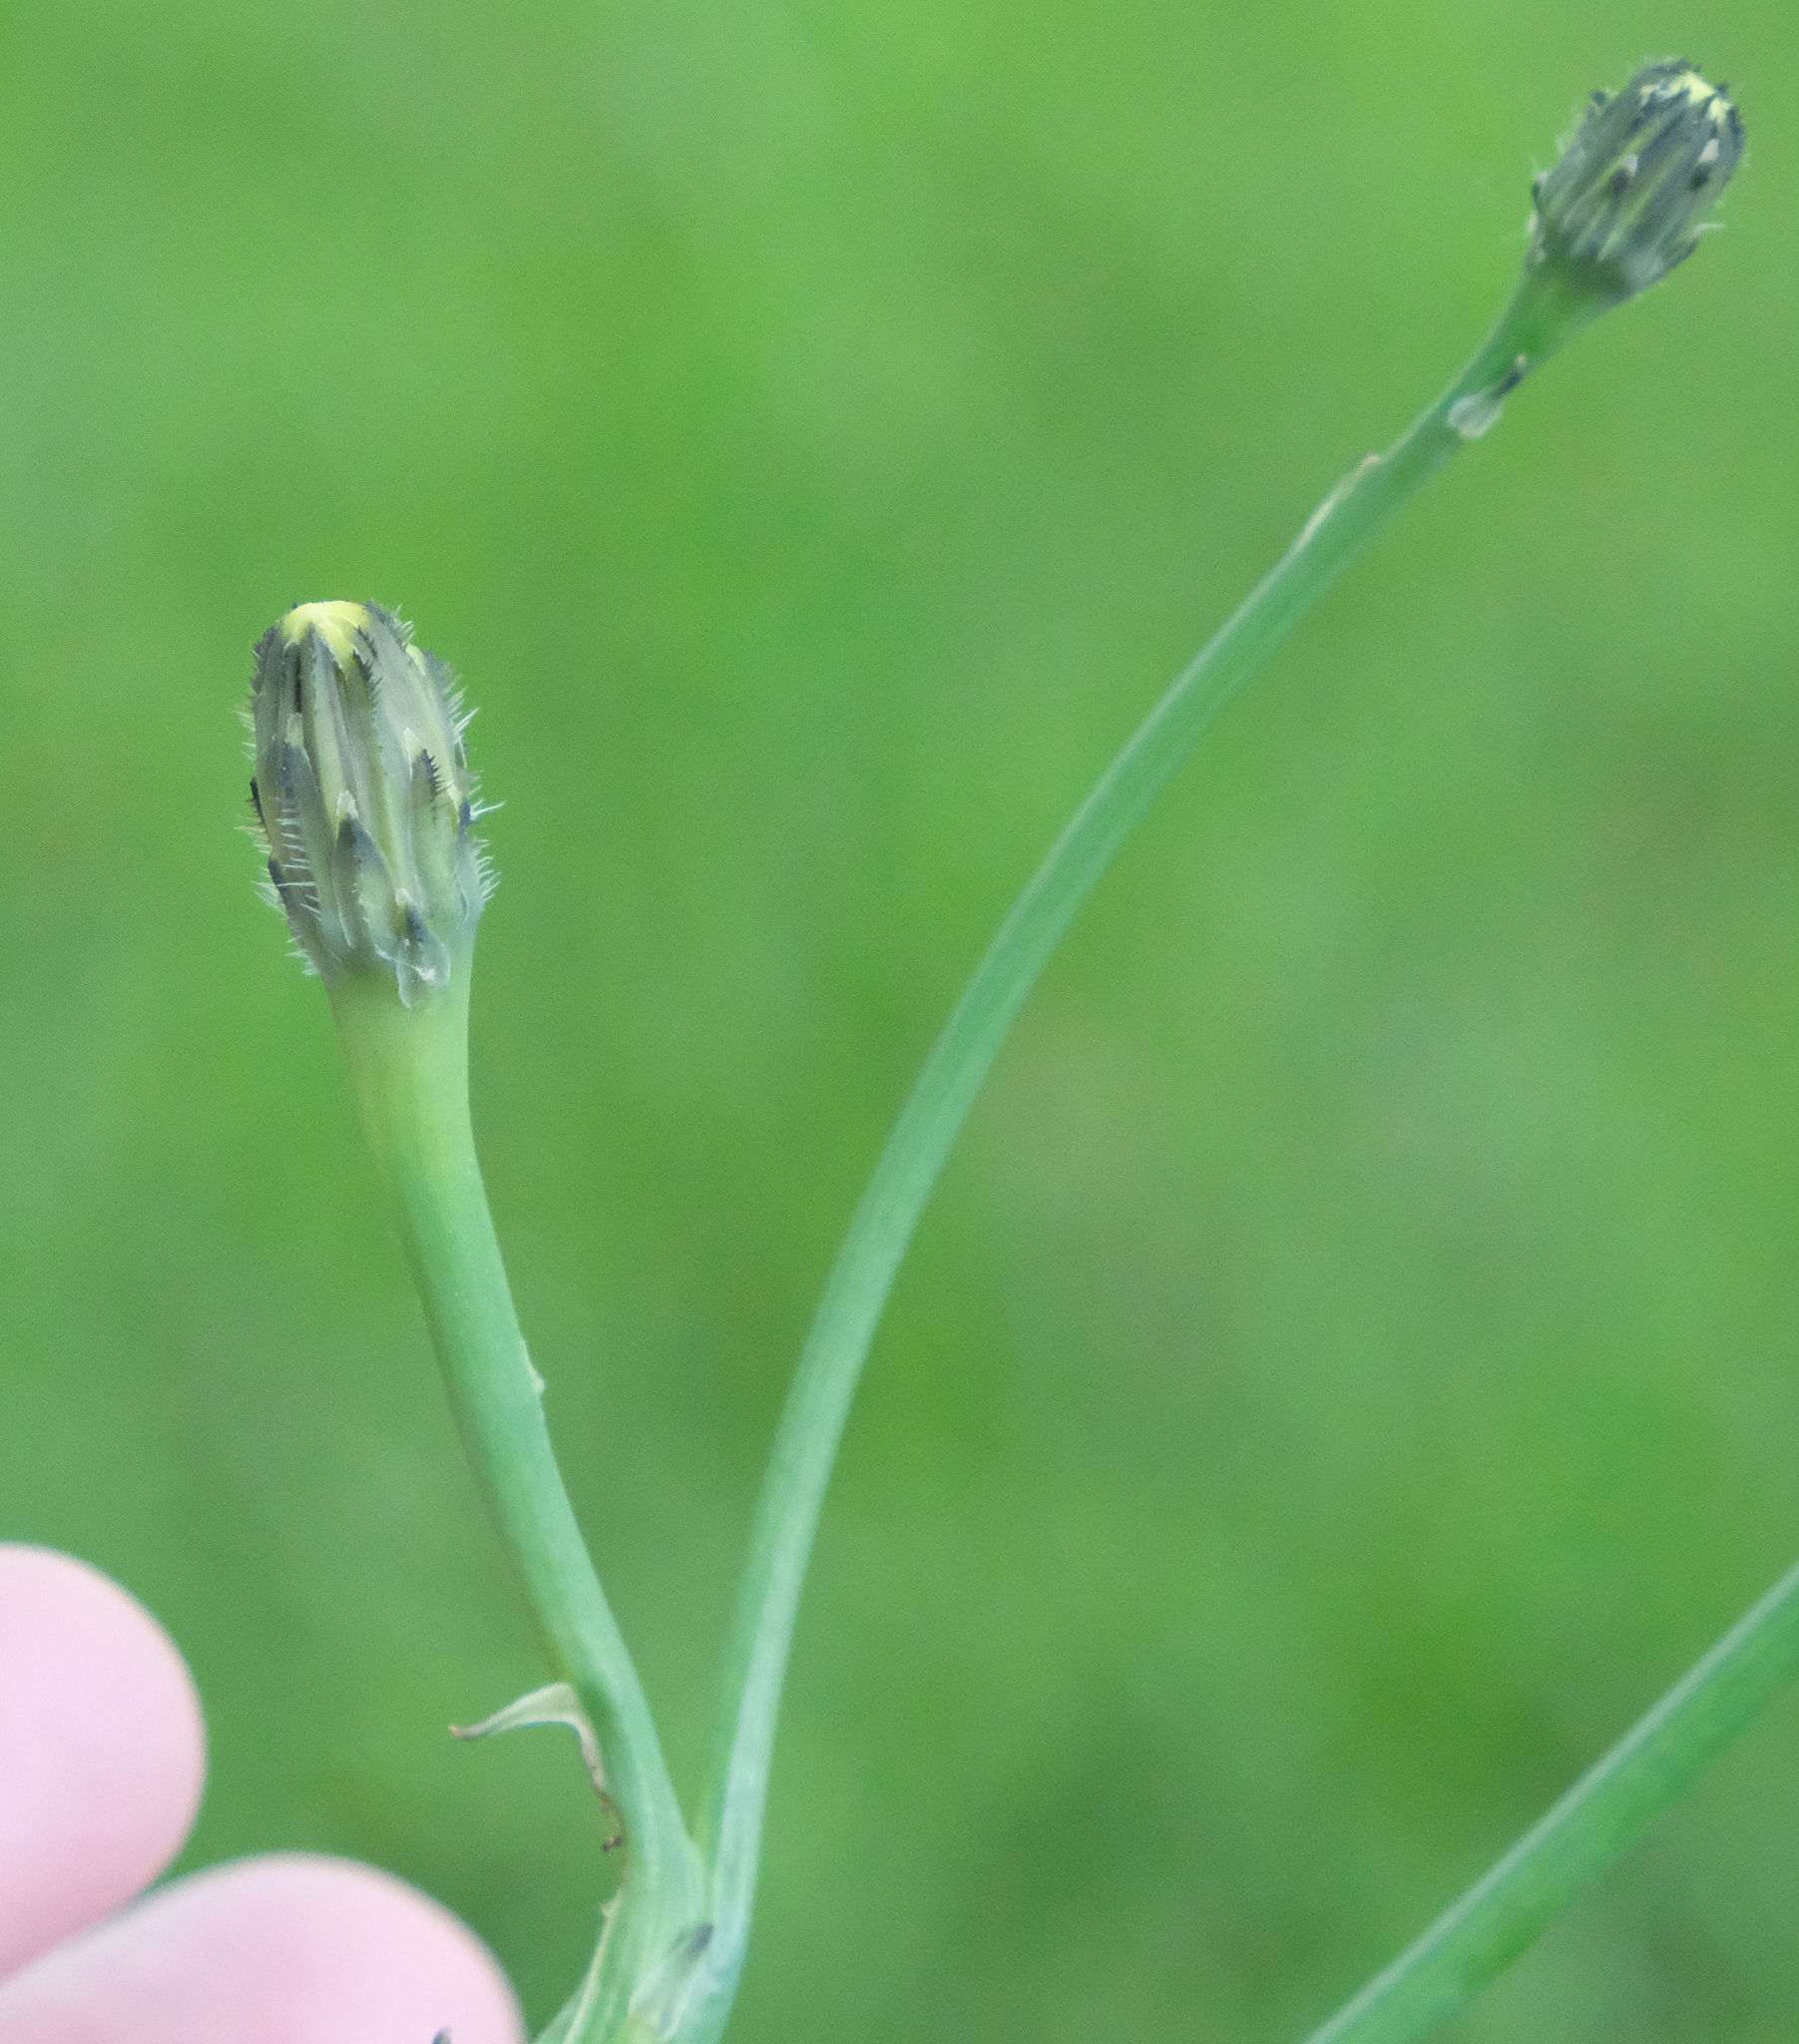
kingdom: Plantae
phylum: Tracheophyta
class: Magnoliopsida
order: Asterales
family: Asteraceae
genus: Hypochaeris
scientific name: Hypochaeris radicata
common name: Flatweed
